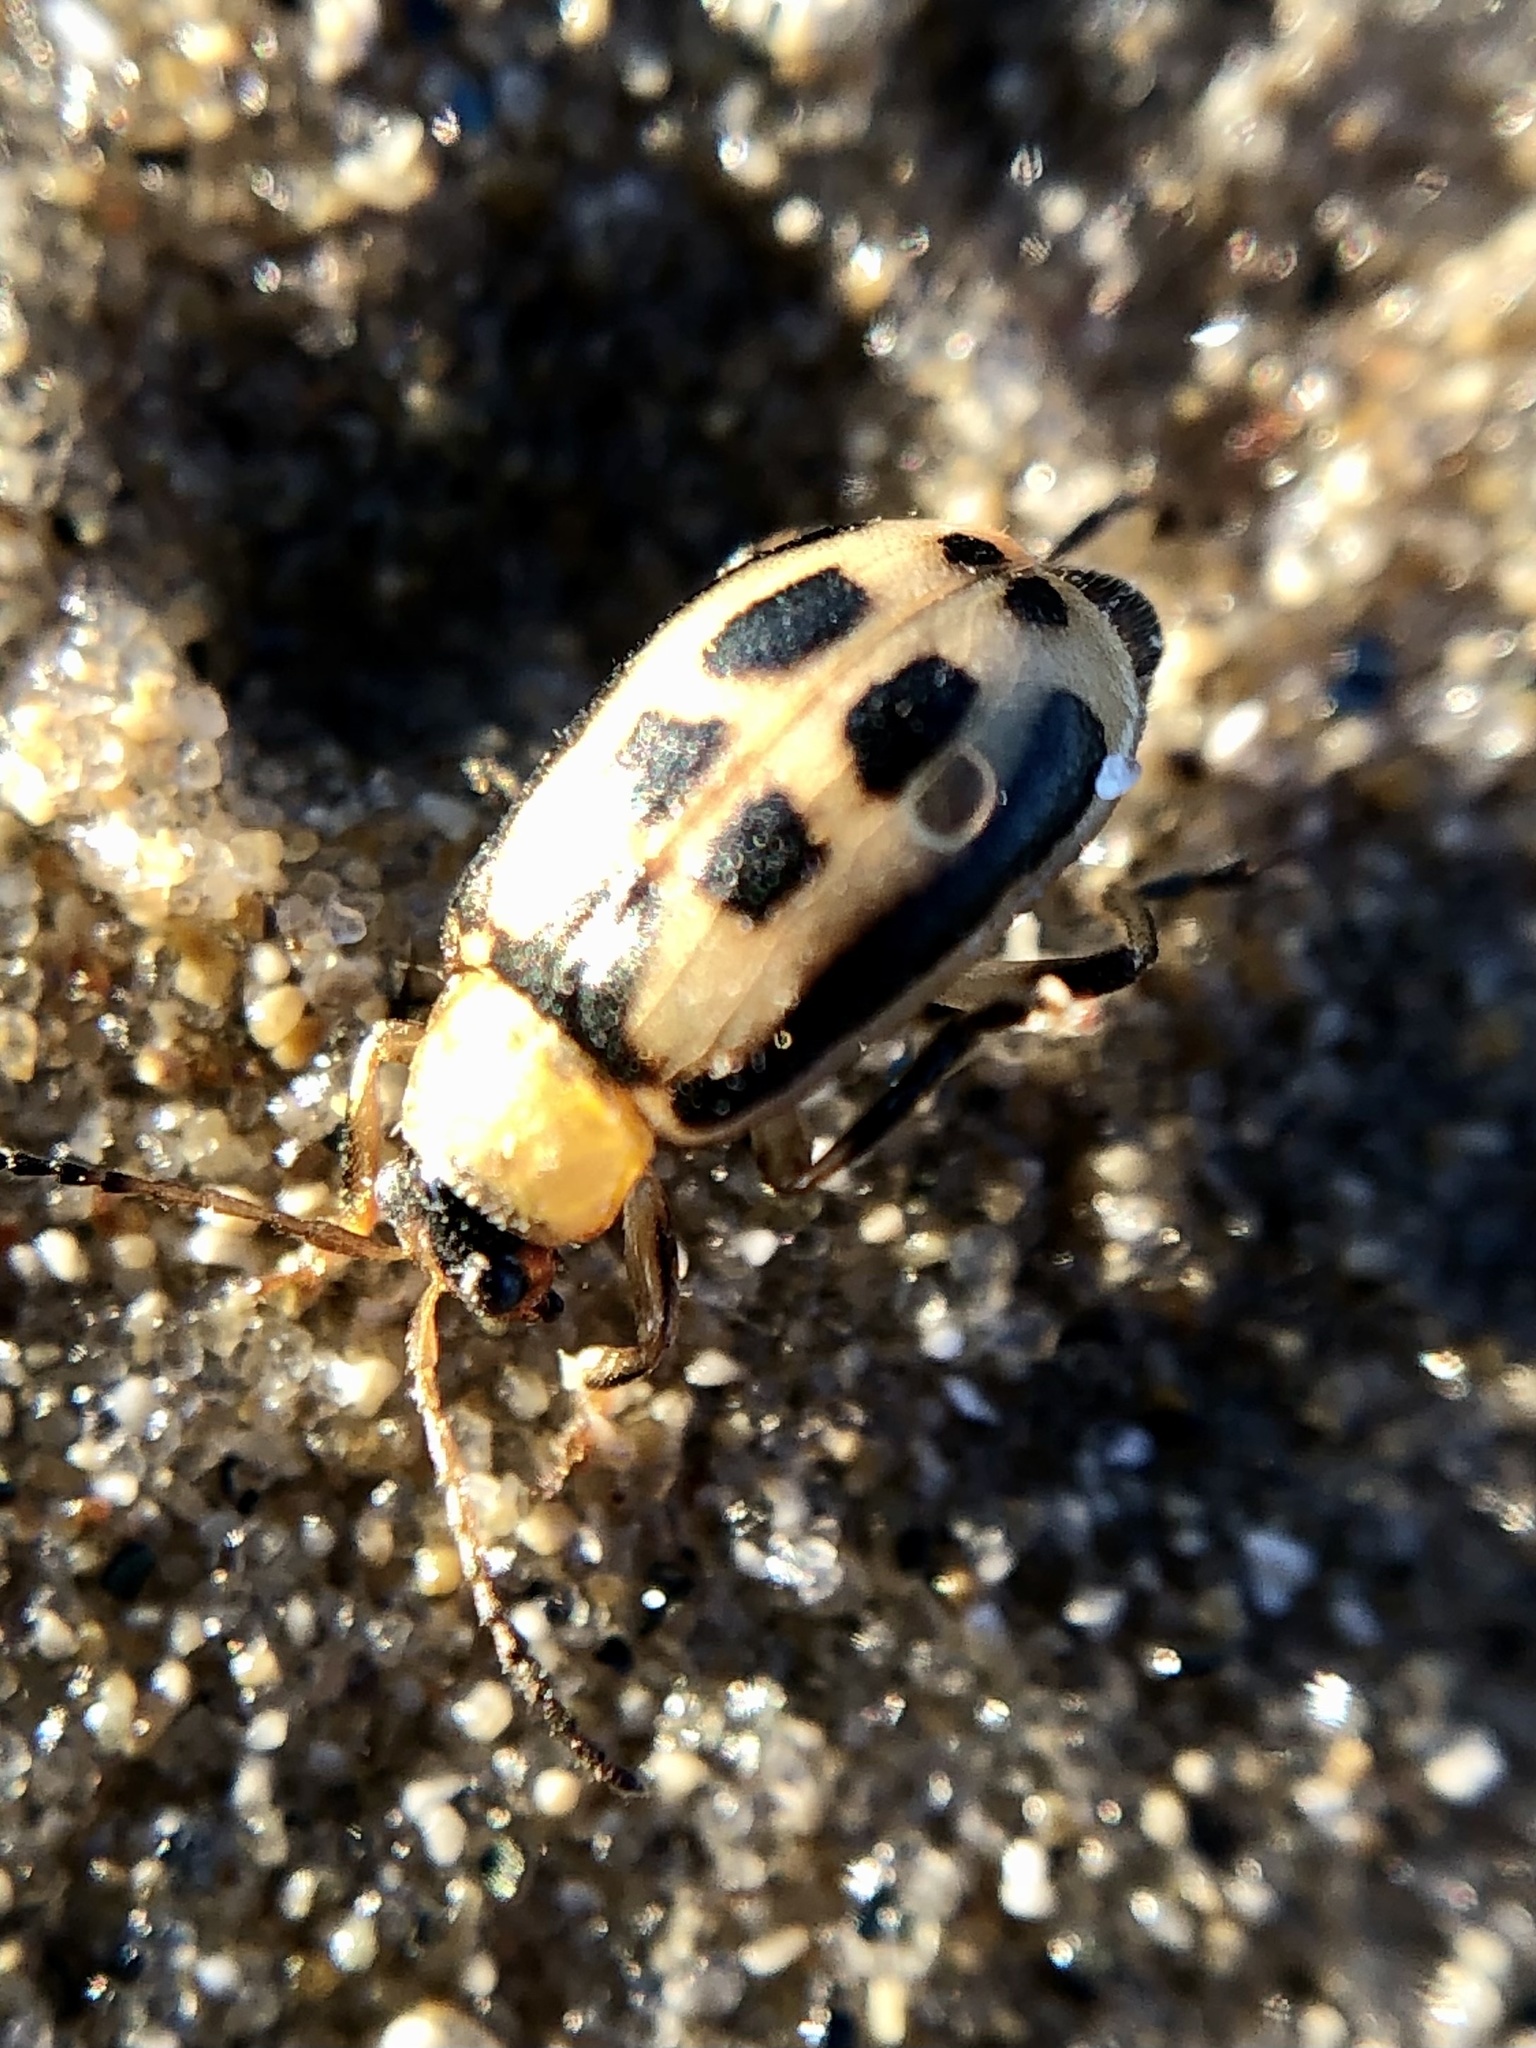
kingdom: Animalia
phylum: Arthropoda
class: Insecta
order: Coleoptera
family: Chrysomelidae
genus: Cerotoma
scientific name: Cerotoma trifurcata
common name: Bean leaf beetle
